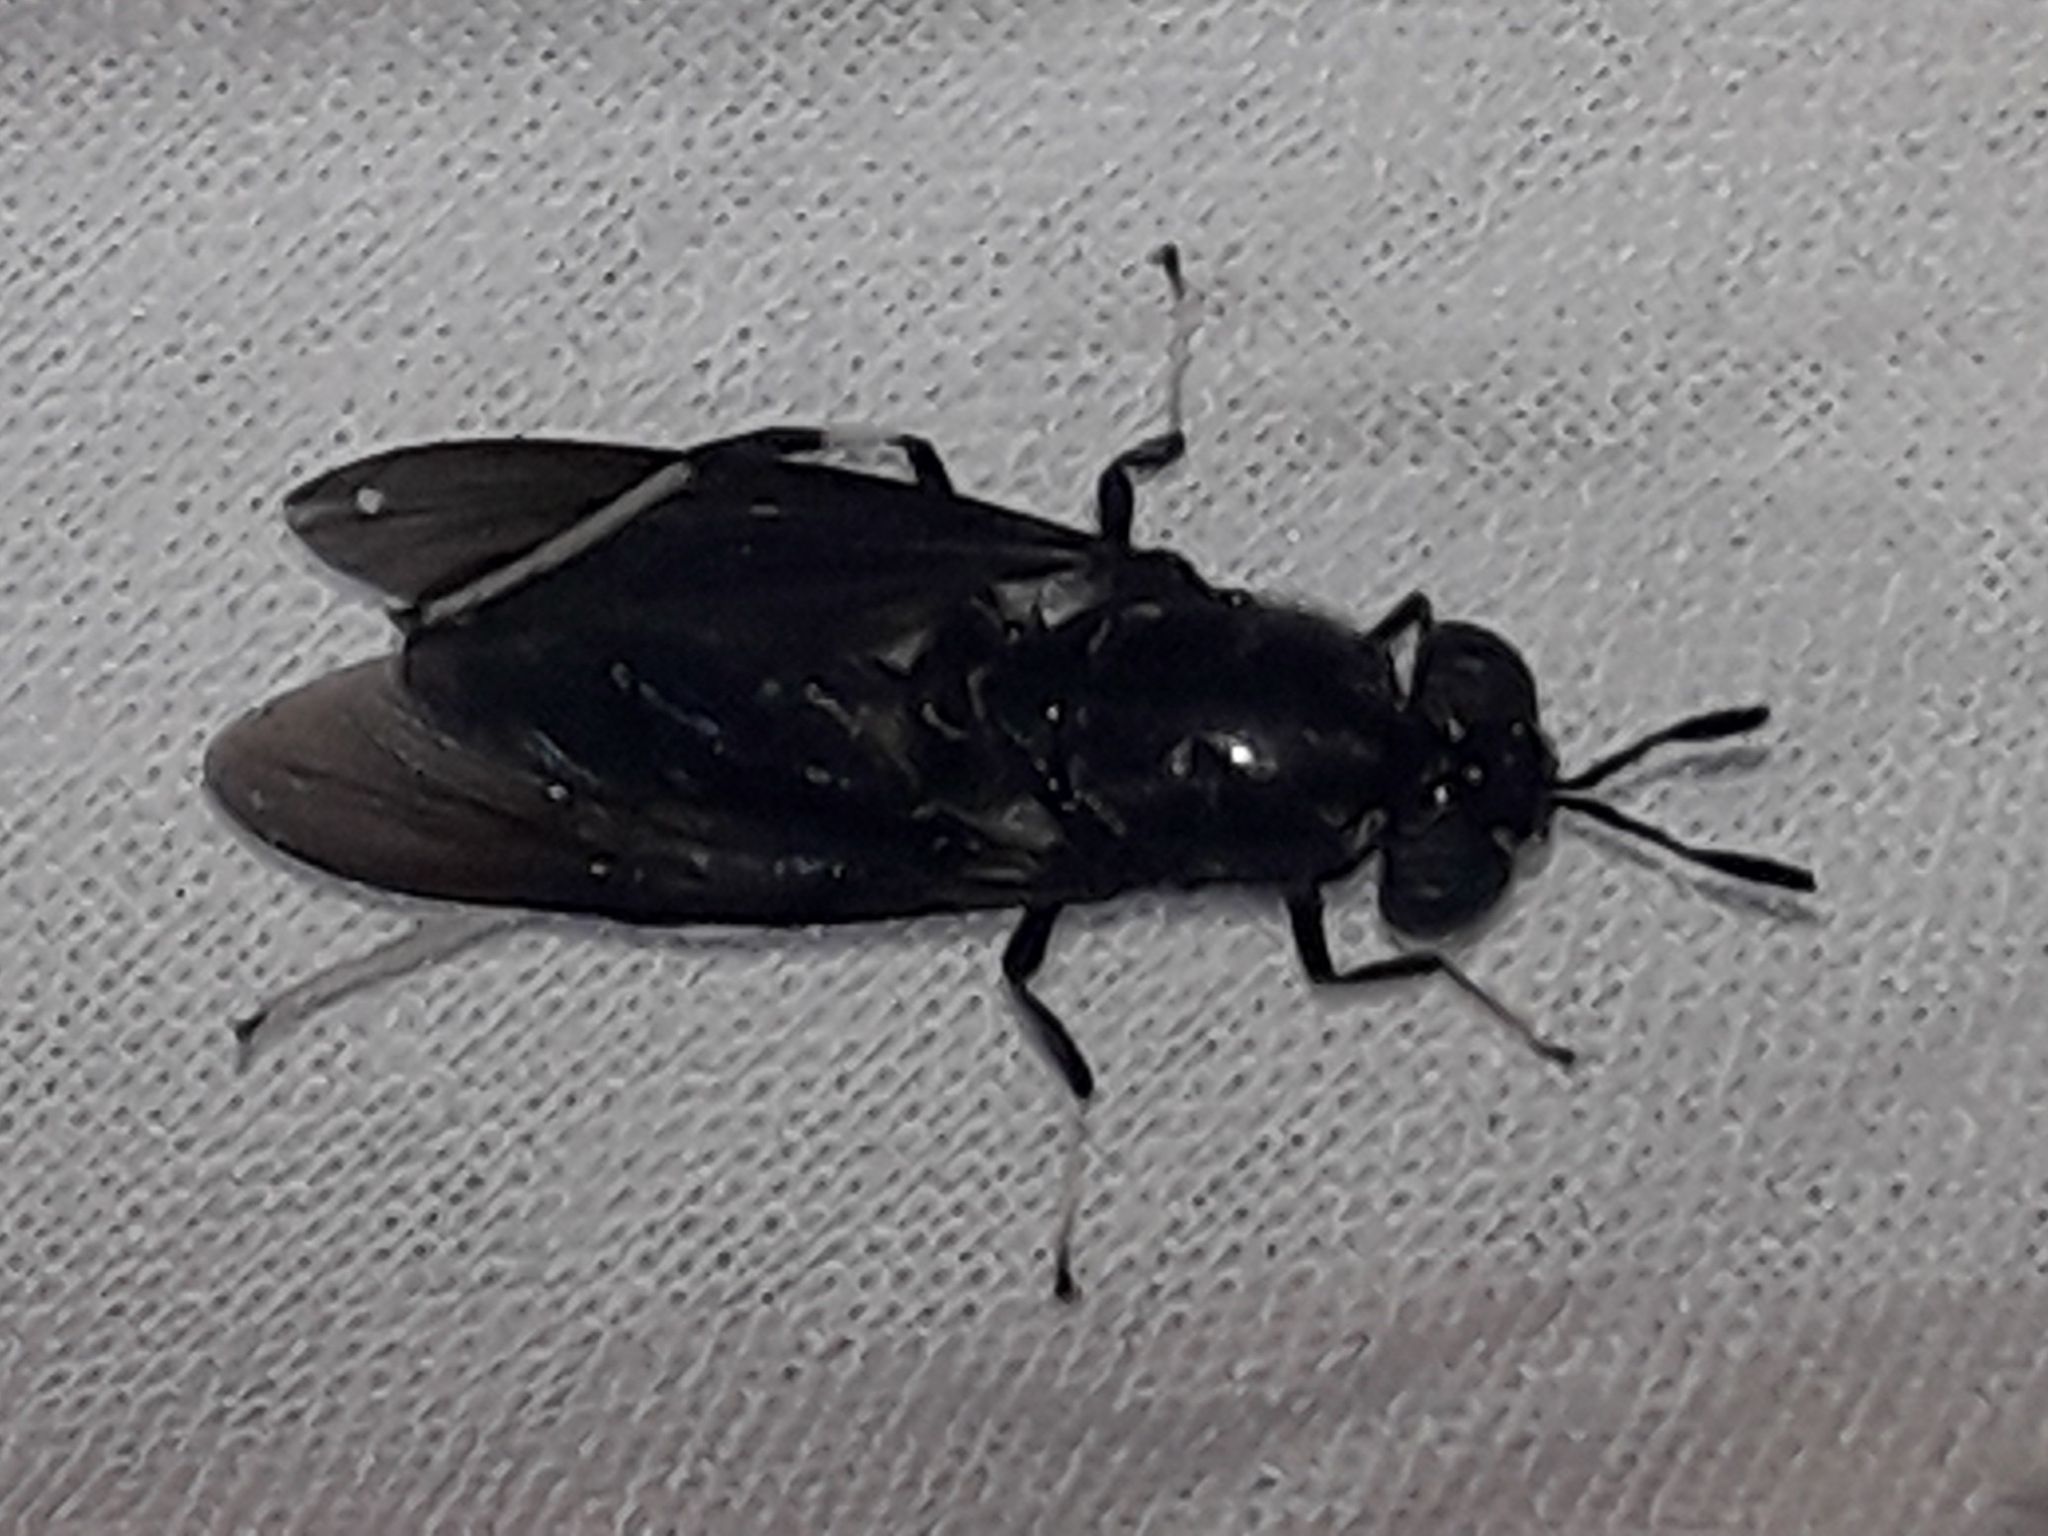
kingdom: Animalia
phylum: Arthropoda
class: Insecta
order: Diptera
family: Stratiomyidae
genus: Hermetia
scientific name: Hermetia illucens
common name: Black soldier fly
